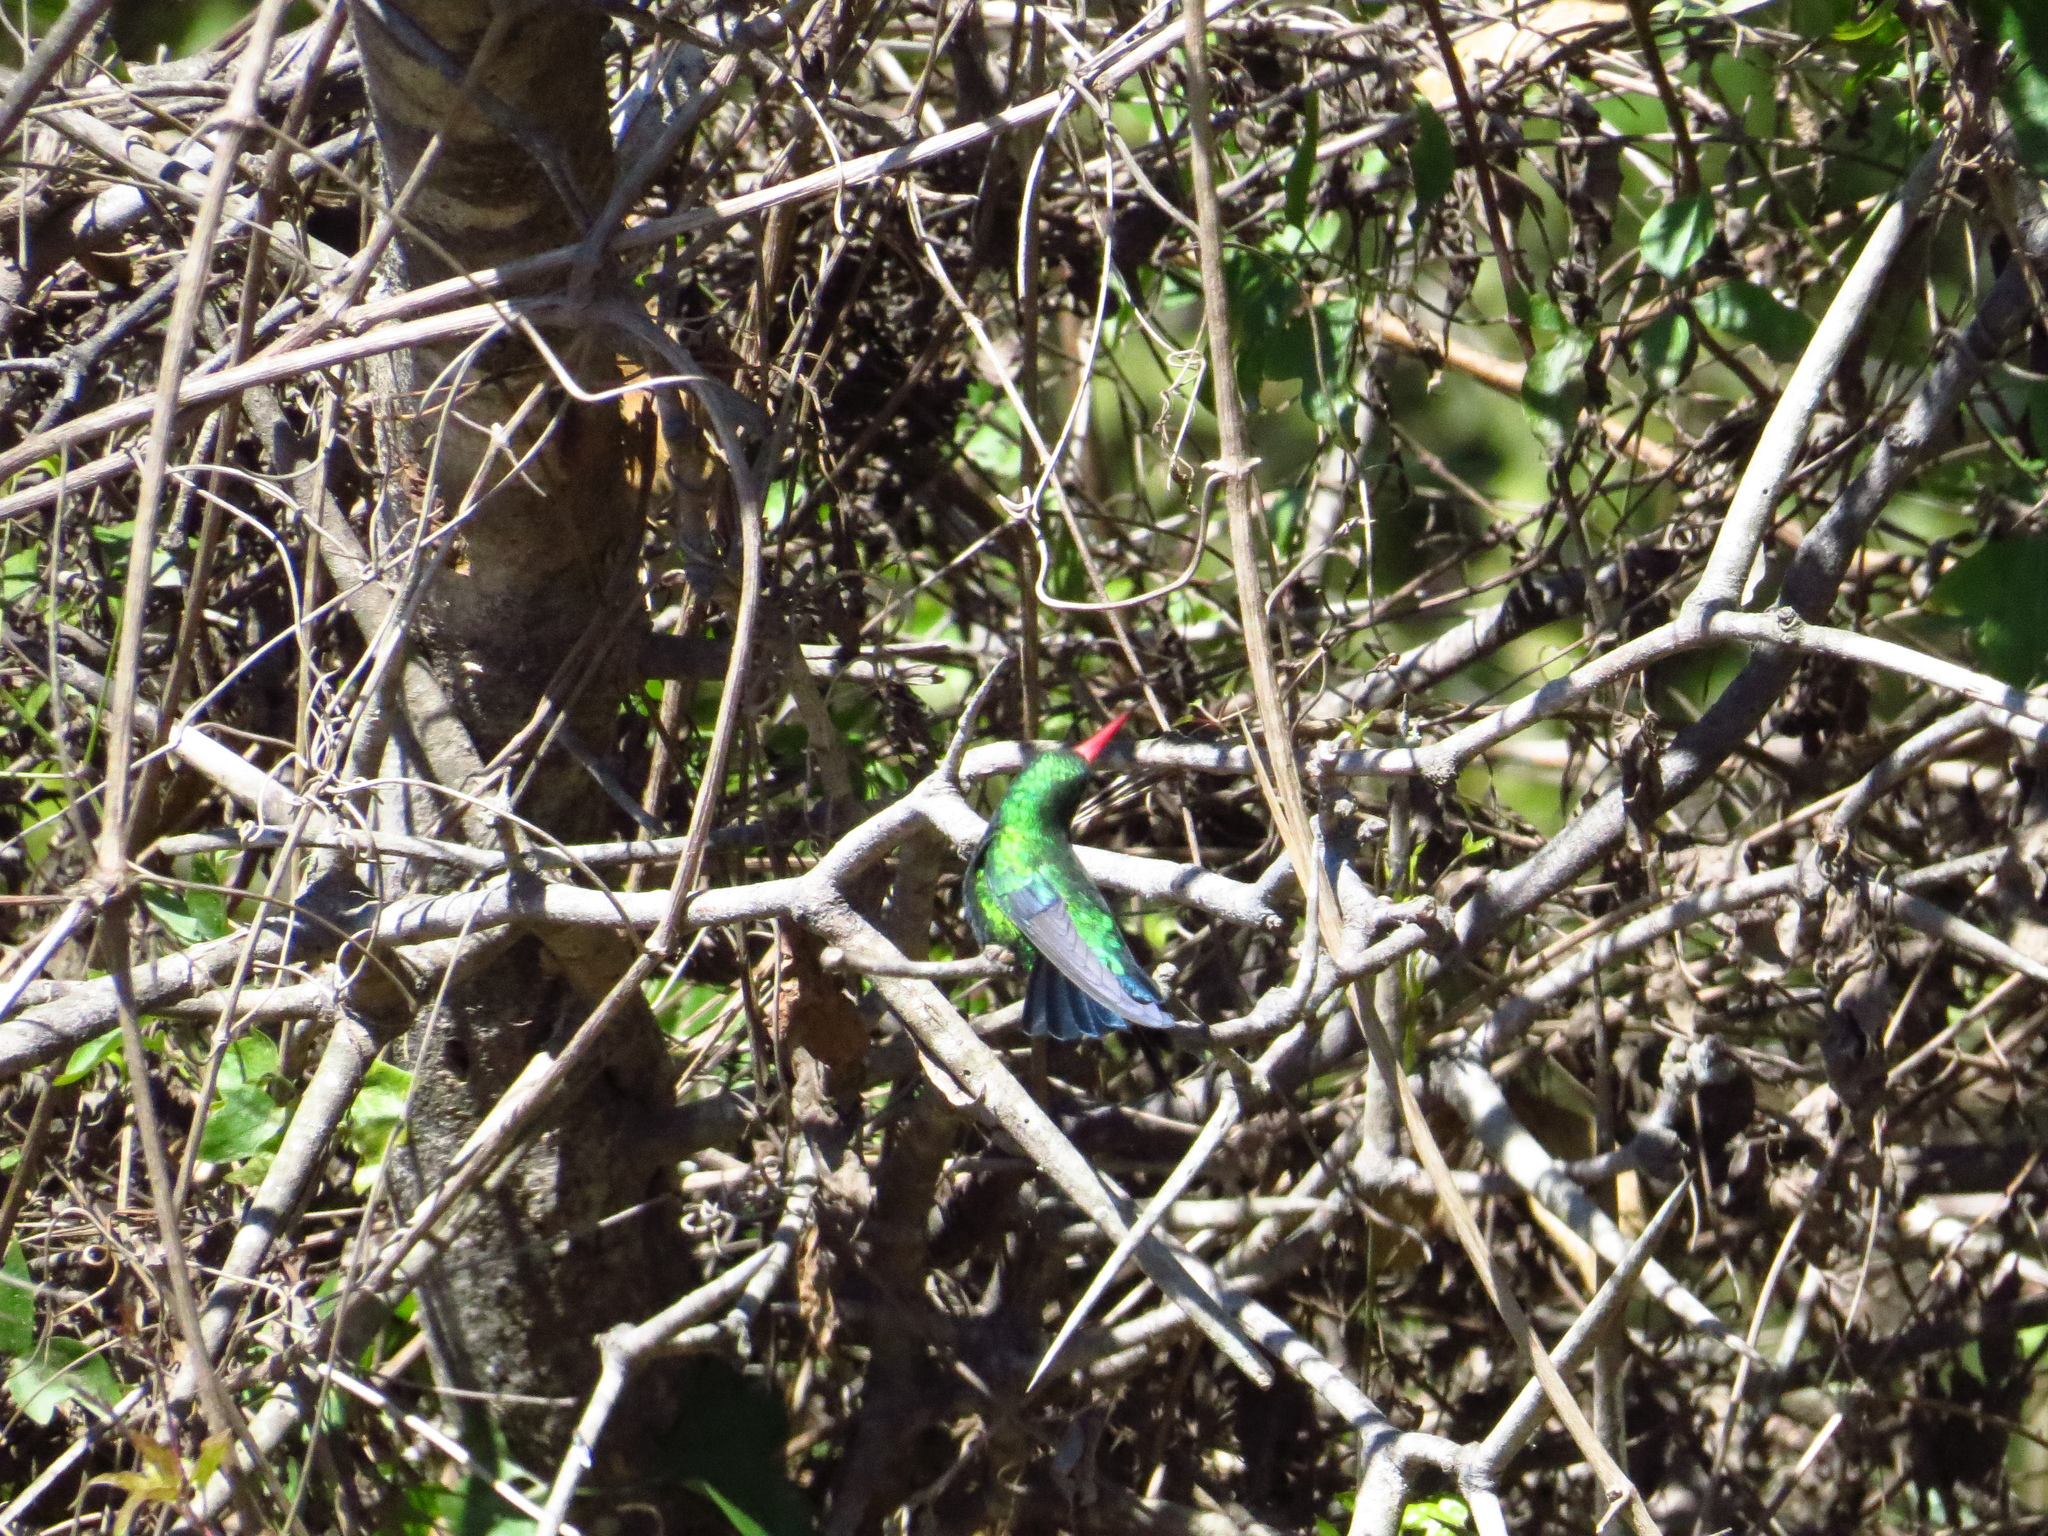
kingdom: Animalia
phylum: Chordata
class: Aves
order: Apodiformes
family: Trochilidae
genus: Chlorostilbon
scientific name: Chlorostilbon lucidus
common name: Glittering-bellied emerald
